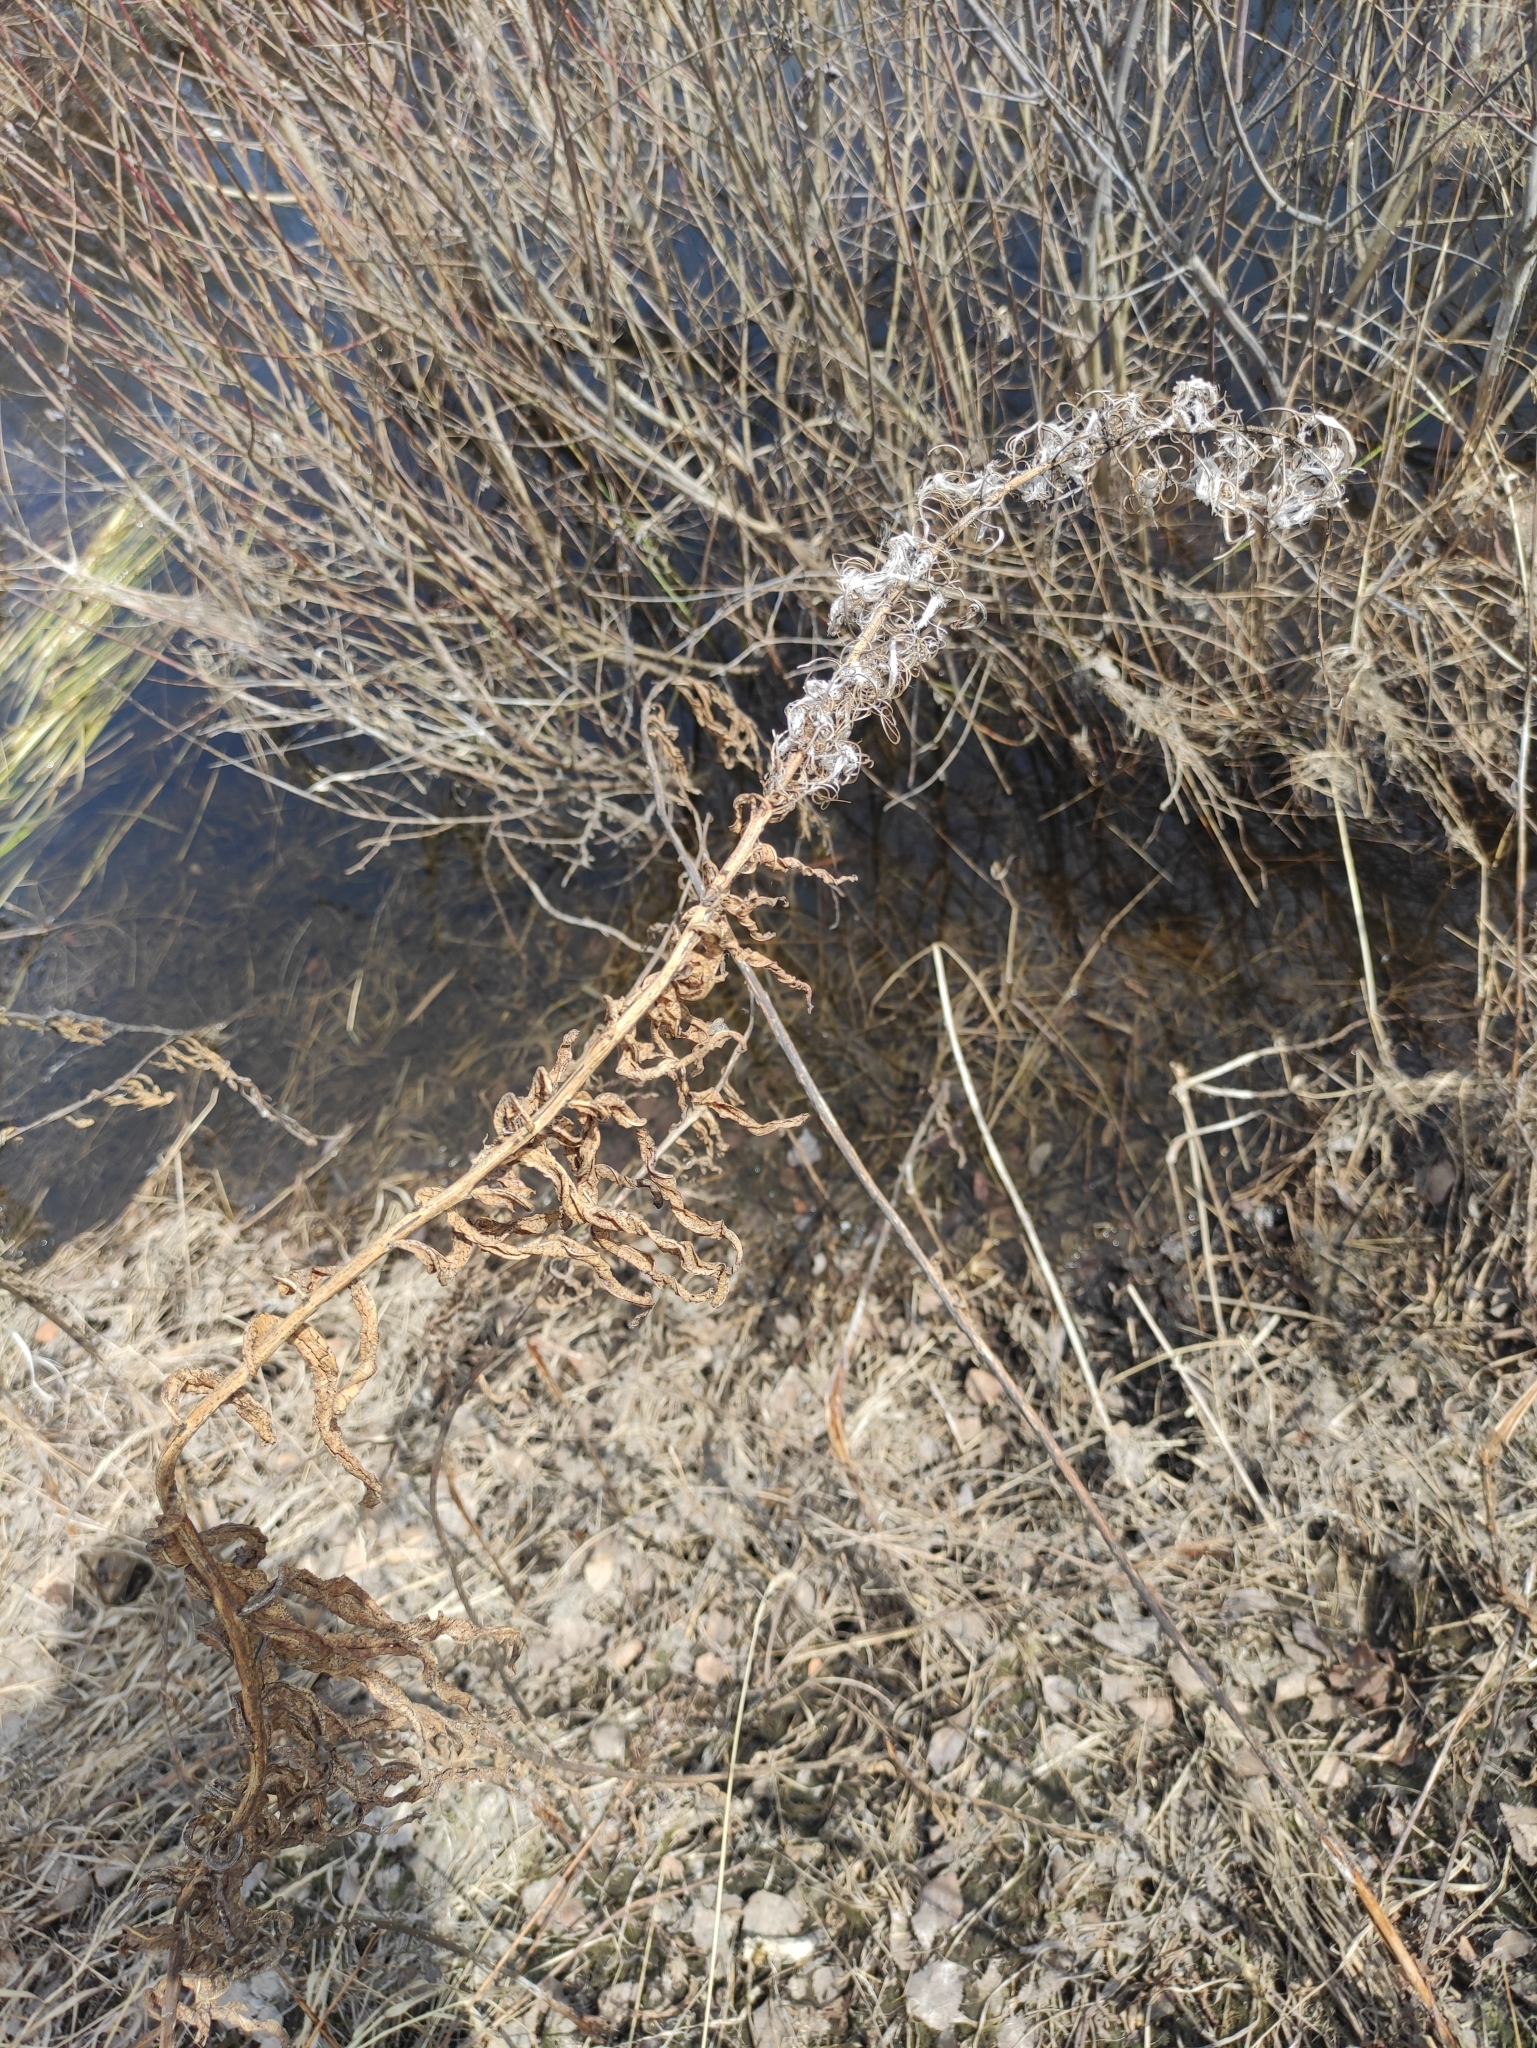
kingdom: Plantae
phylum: Tracheophyta
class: Magnoliopsida
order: Myrtales
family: Onagraceae
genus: Chamaenerion
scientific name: Chamaenerion angustifolium
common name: Fireweed
